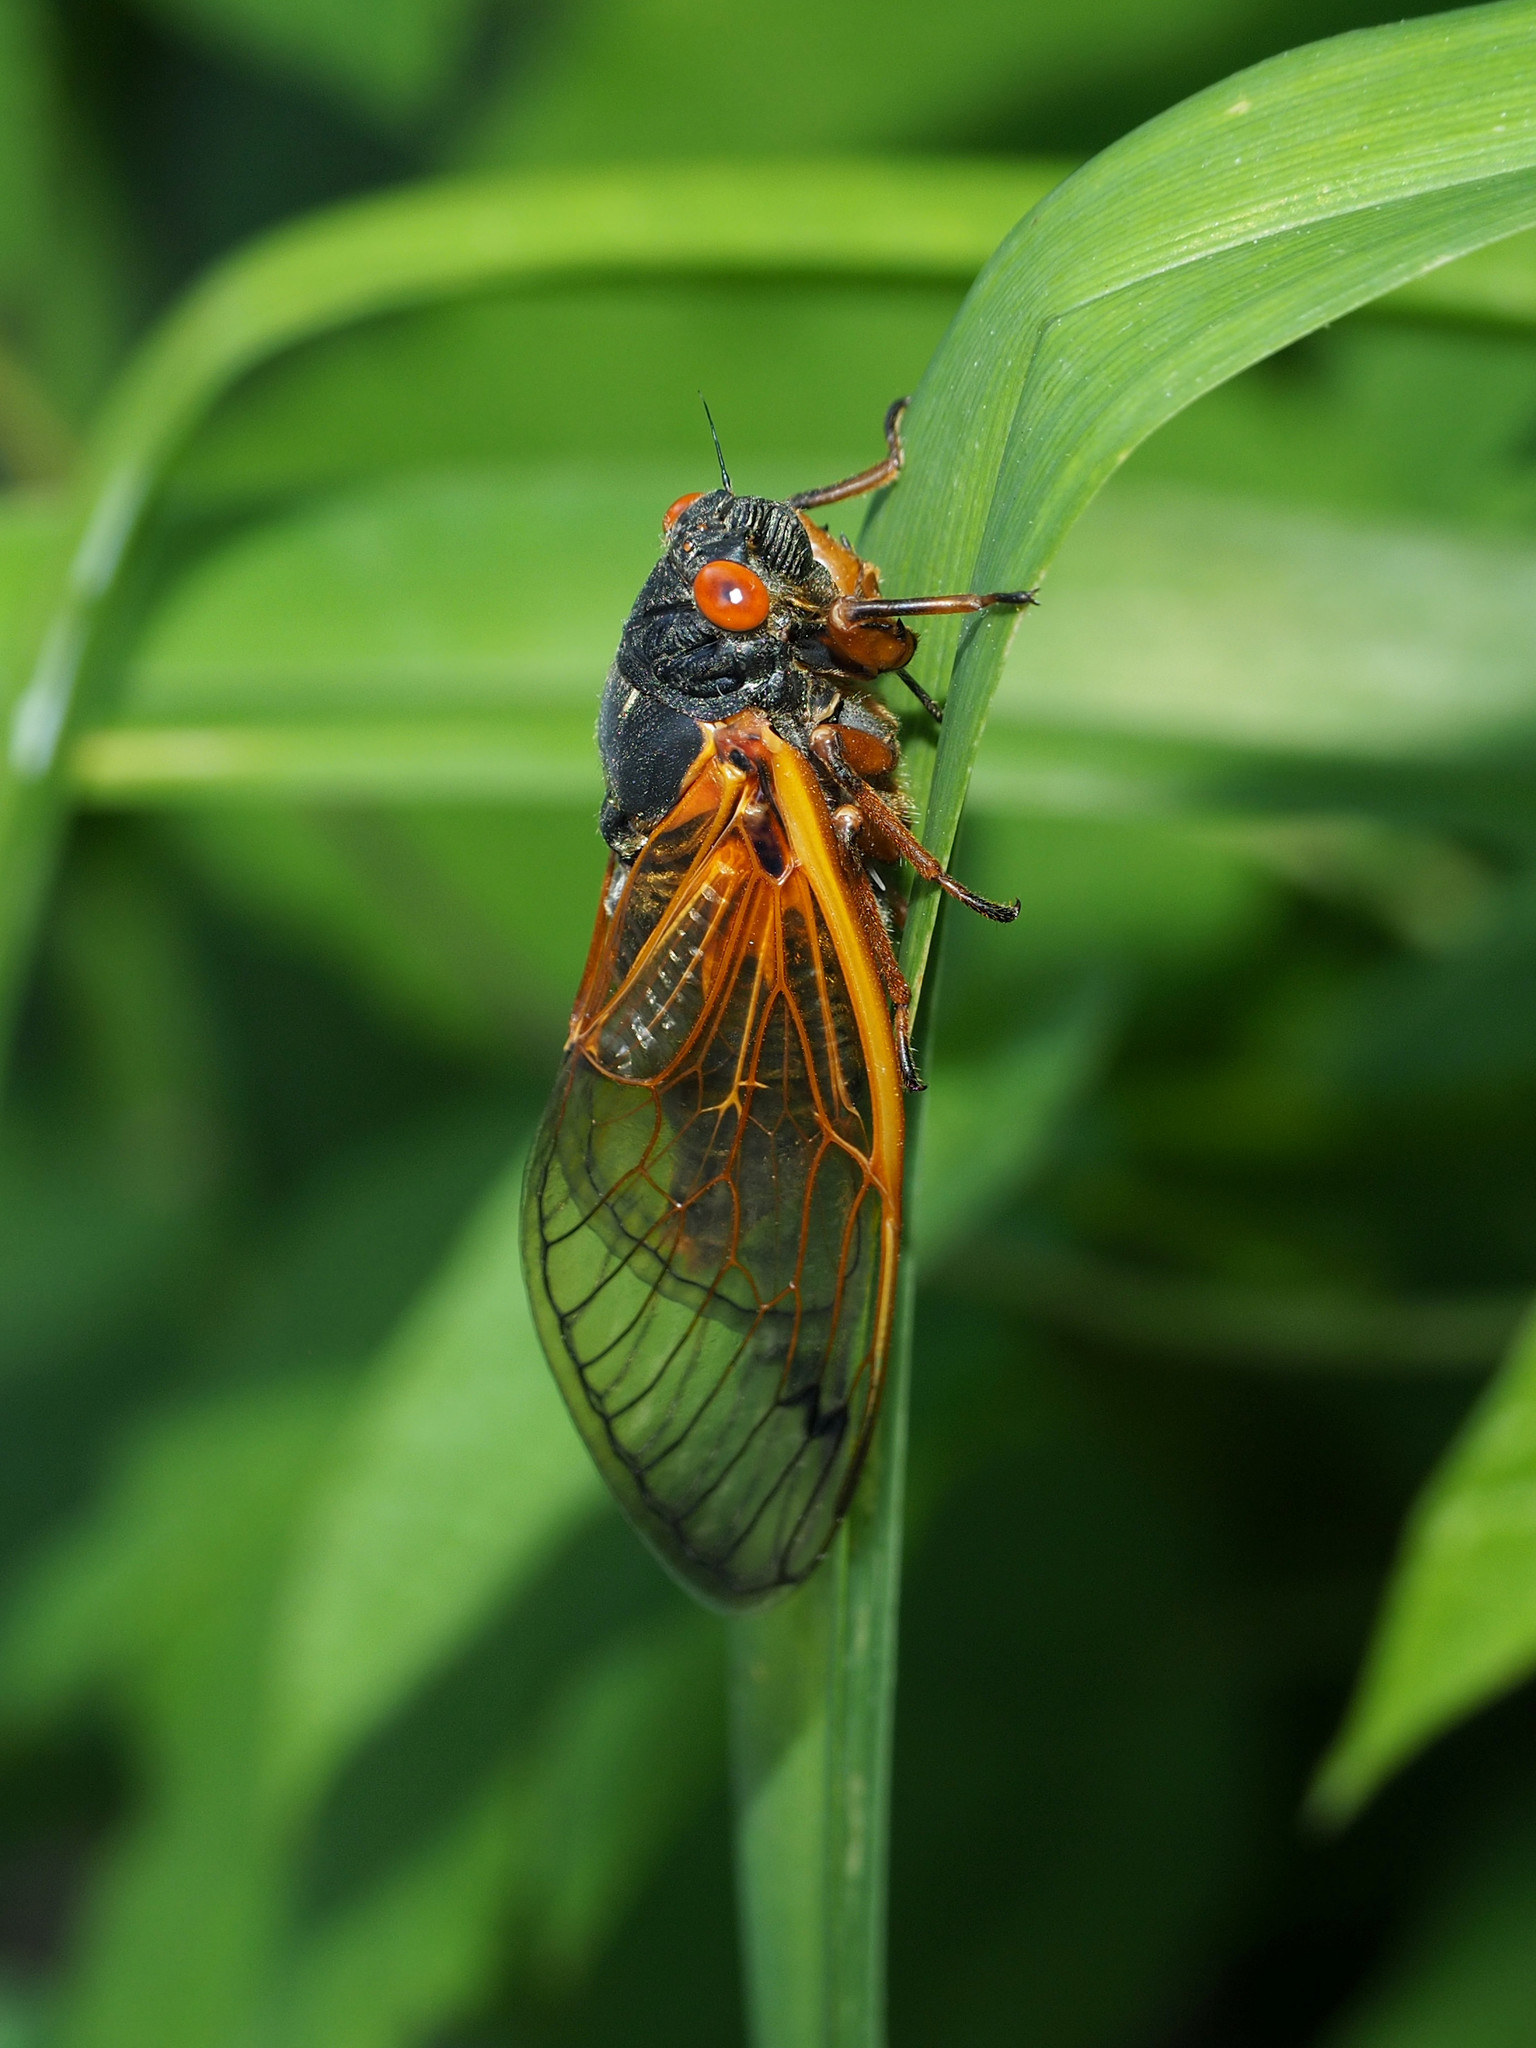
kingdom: Animalia
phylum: Arthropoda
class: Insecta
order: Hemiptera
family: Cicadidae
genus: Magicicada
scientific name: Magicicada cassini
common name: Cassin's 17-year cicada
